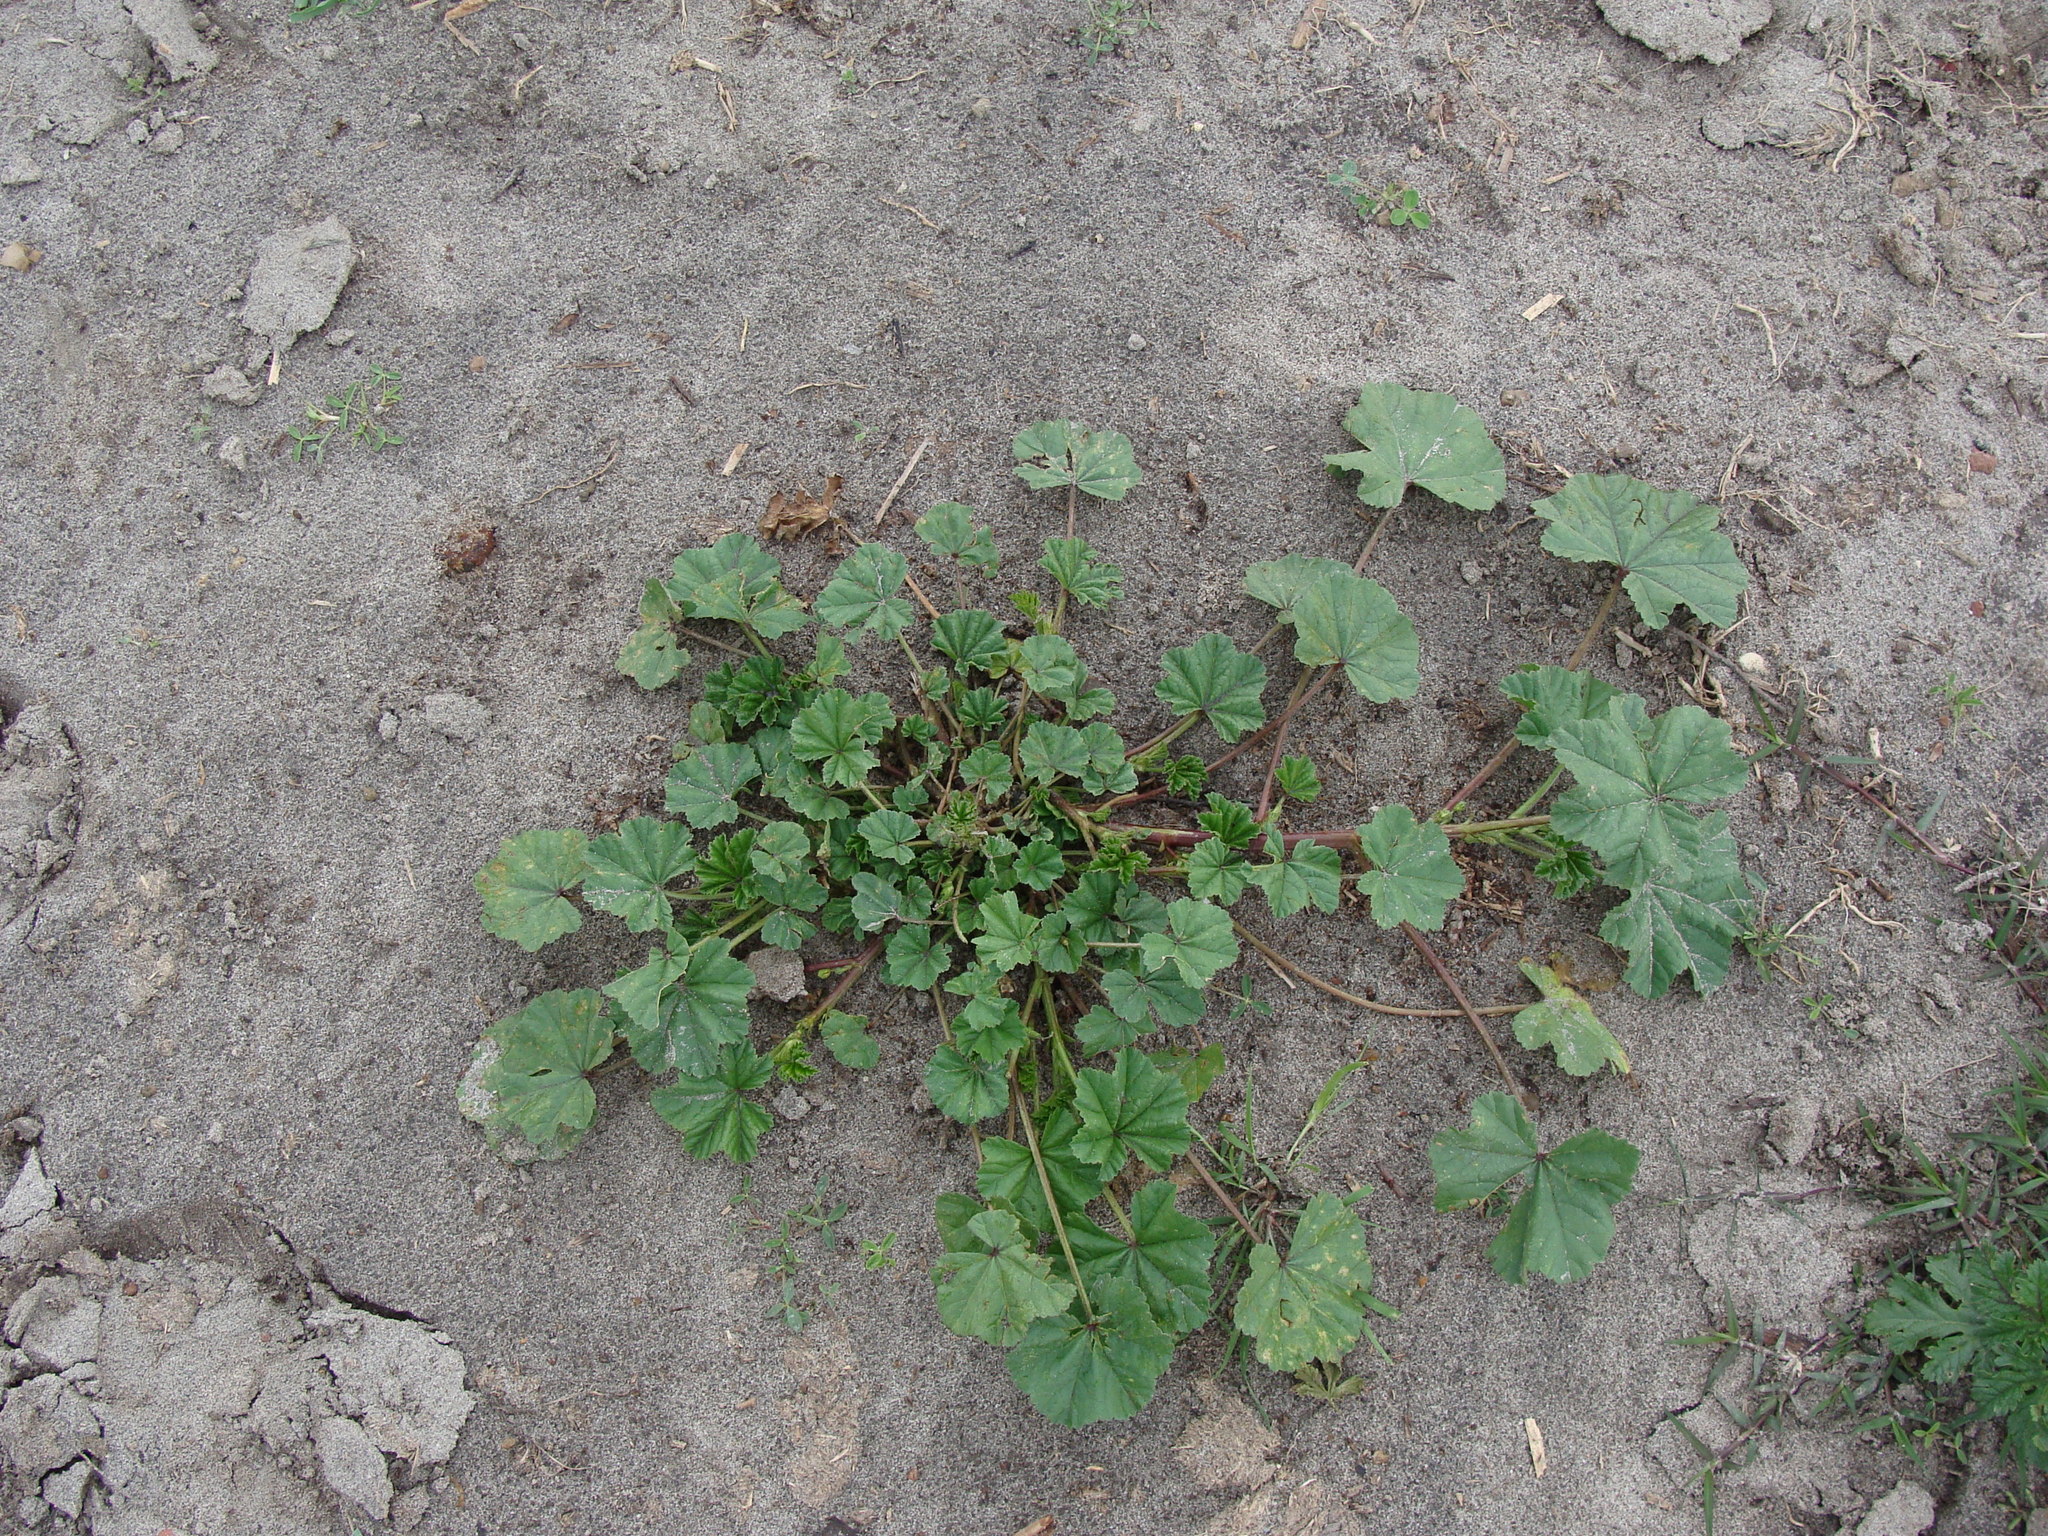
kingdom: Plantae
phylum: Tracheophyta
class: Magnoliopsida
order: Malvales
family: Malvaceae
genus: Malva
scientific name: Malva parviflora
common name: Least mallow
